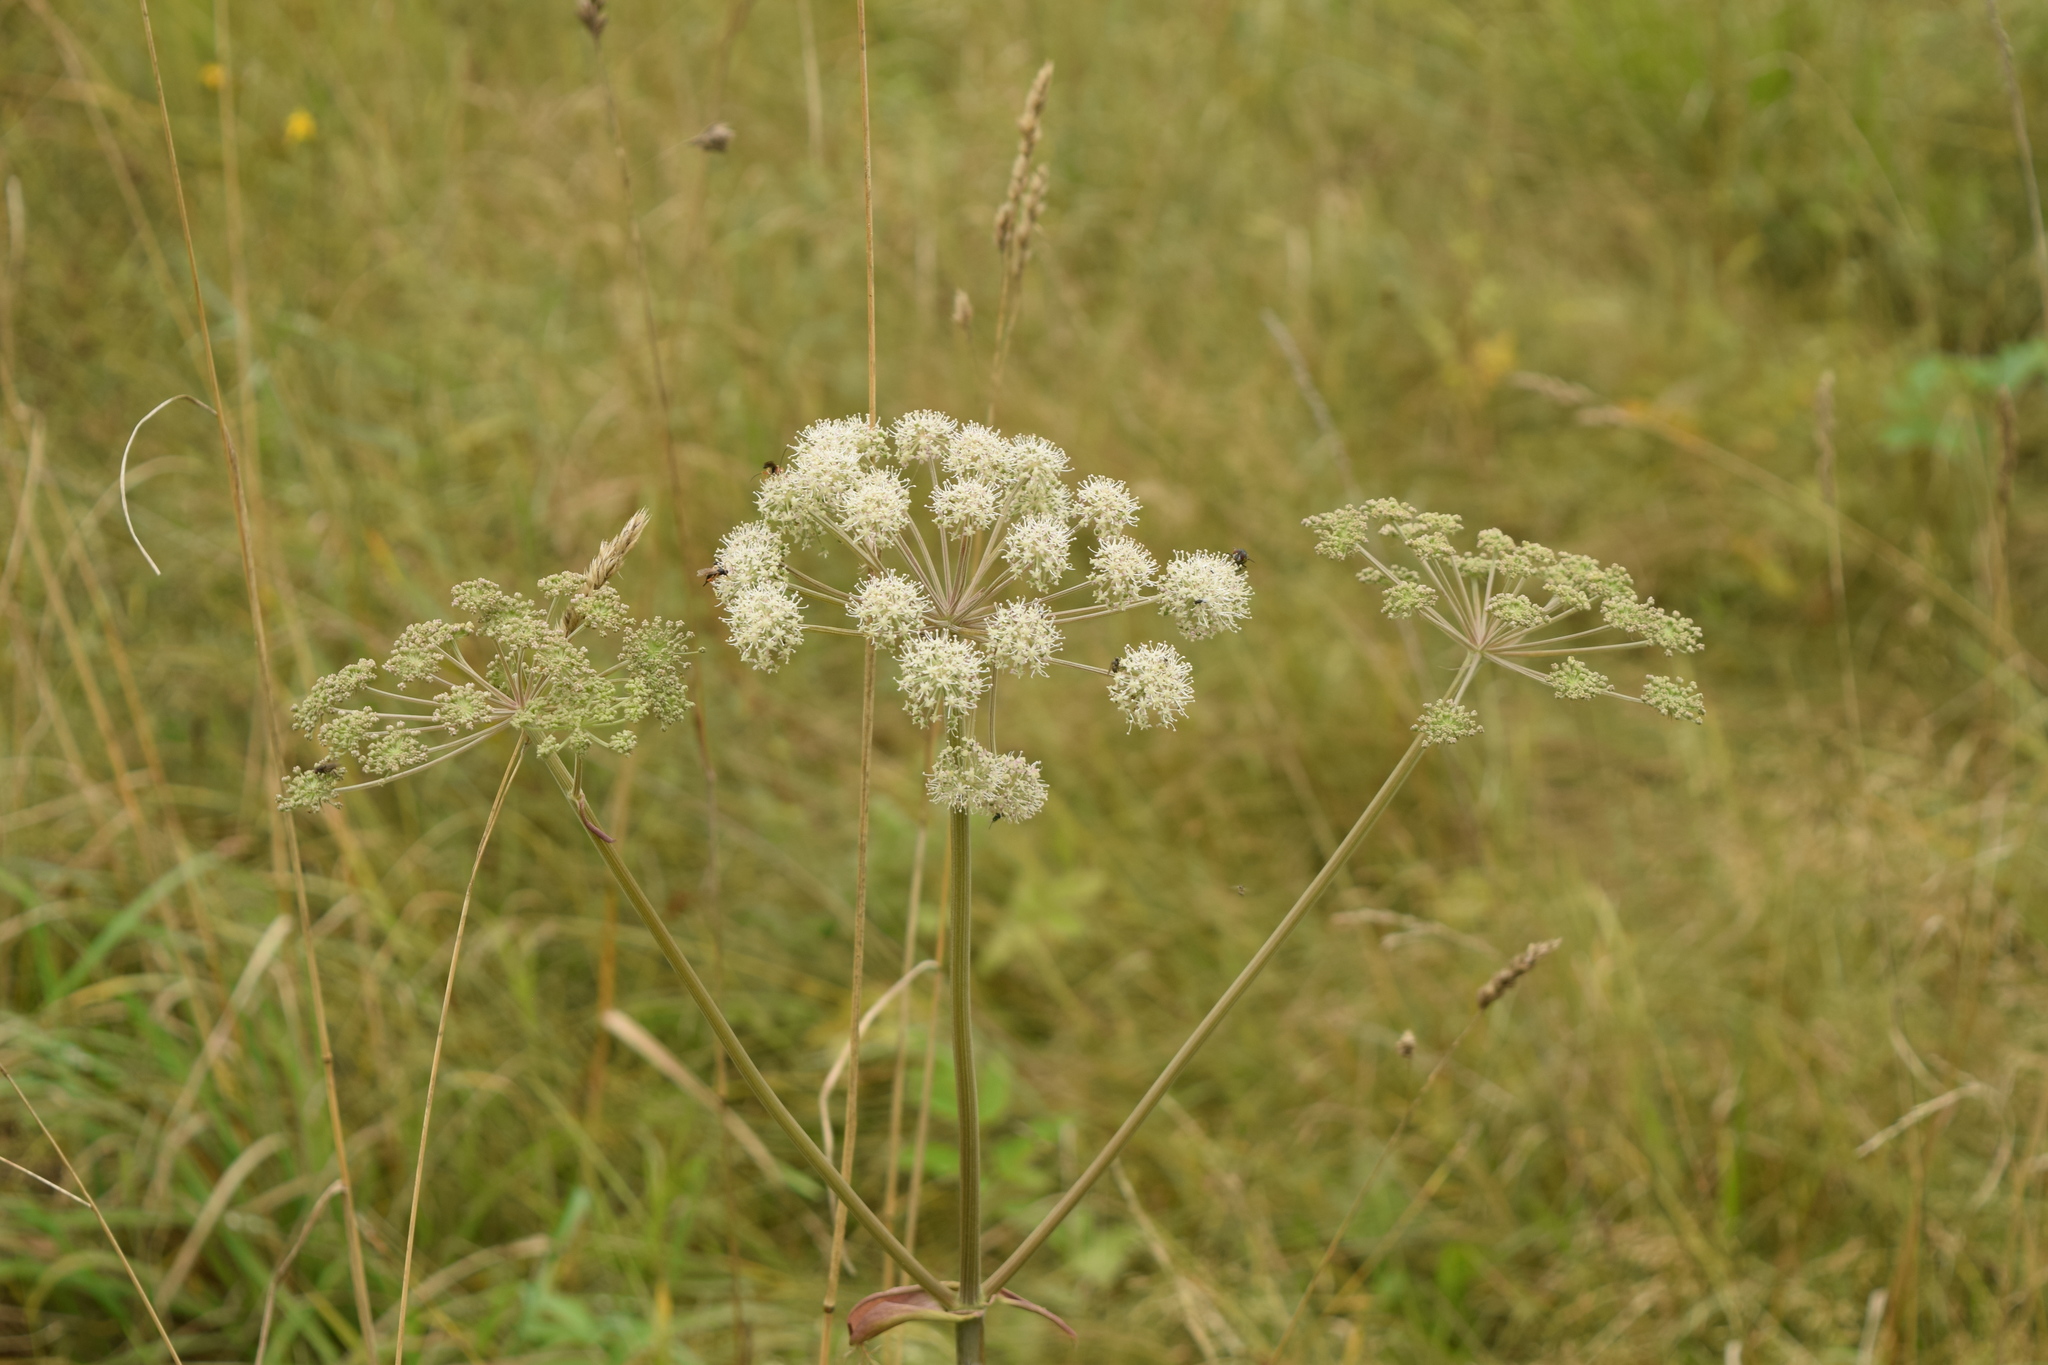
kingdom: Plantae
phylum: Tracheophyta
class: Magnoliopsida
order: Apiales
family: Apiaceae
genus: Angelica
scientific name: Angelica sylvestris
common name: Wild angelica
